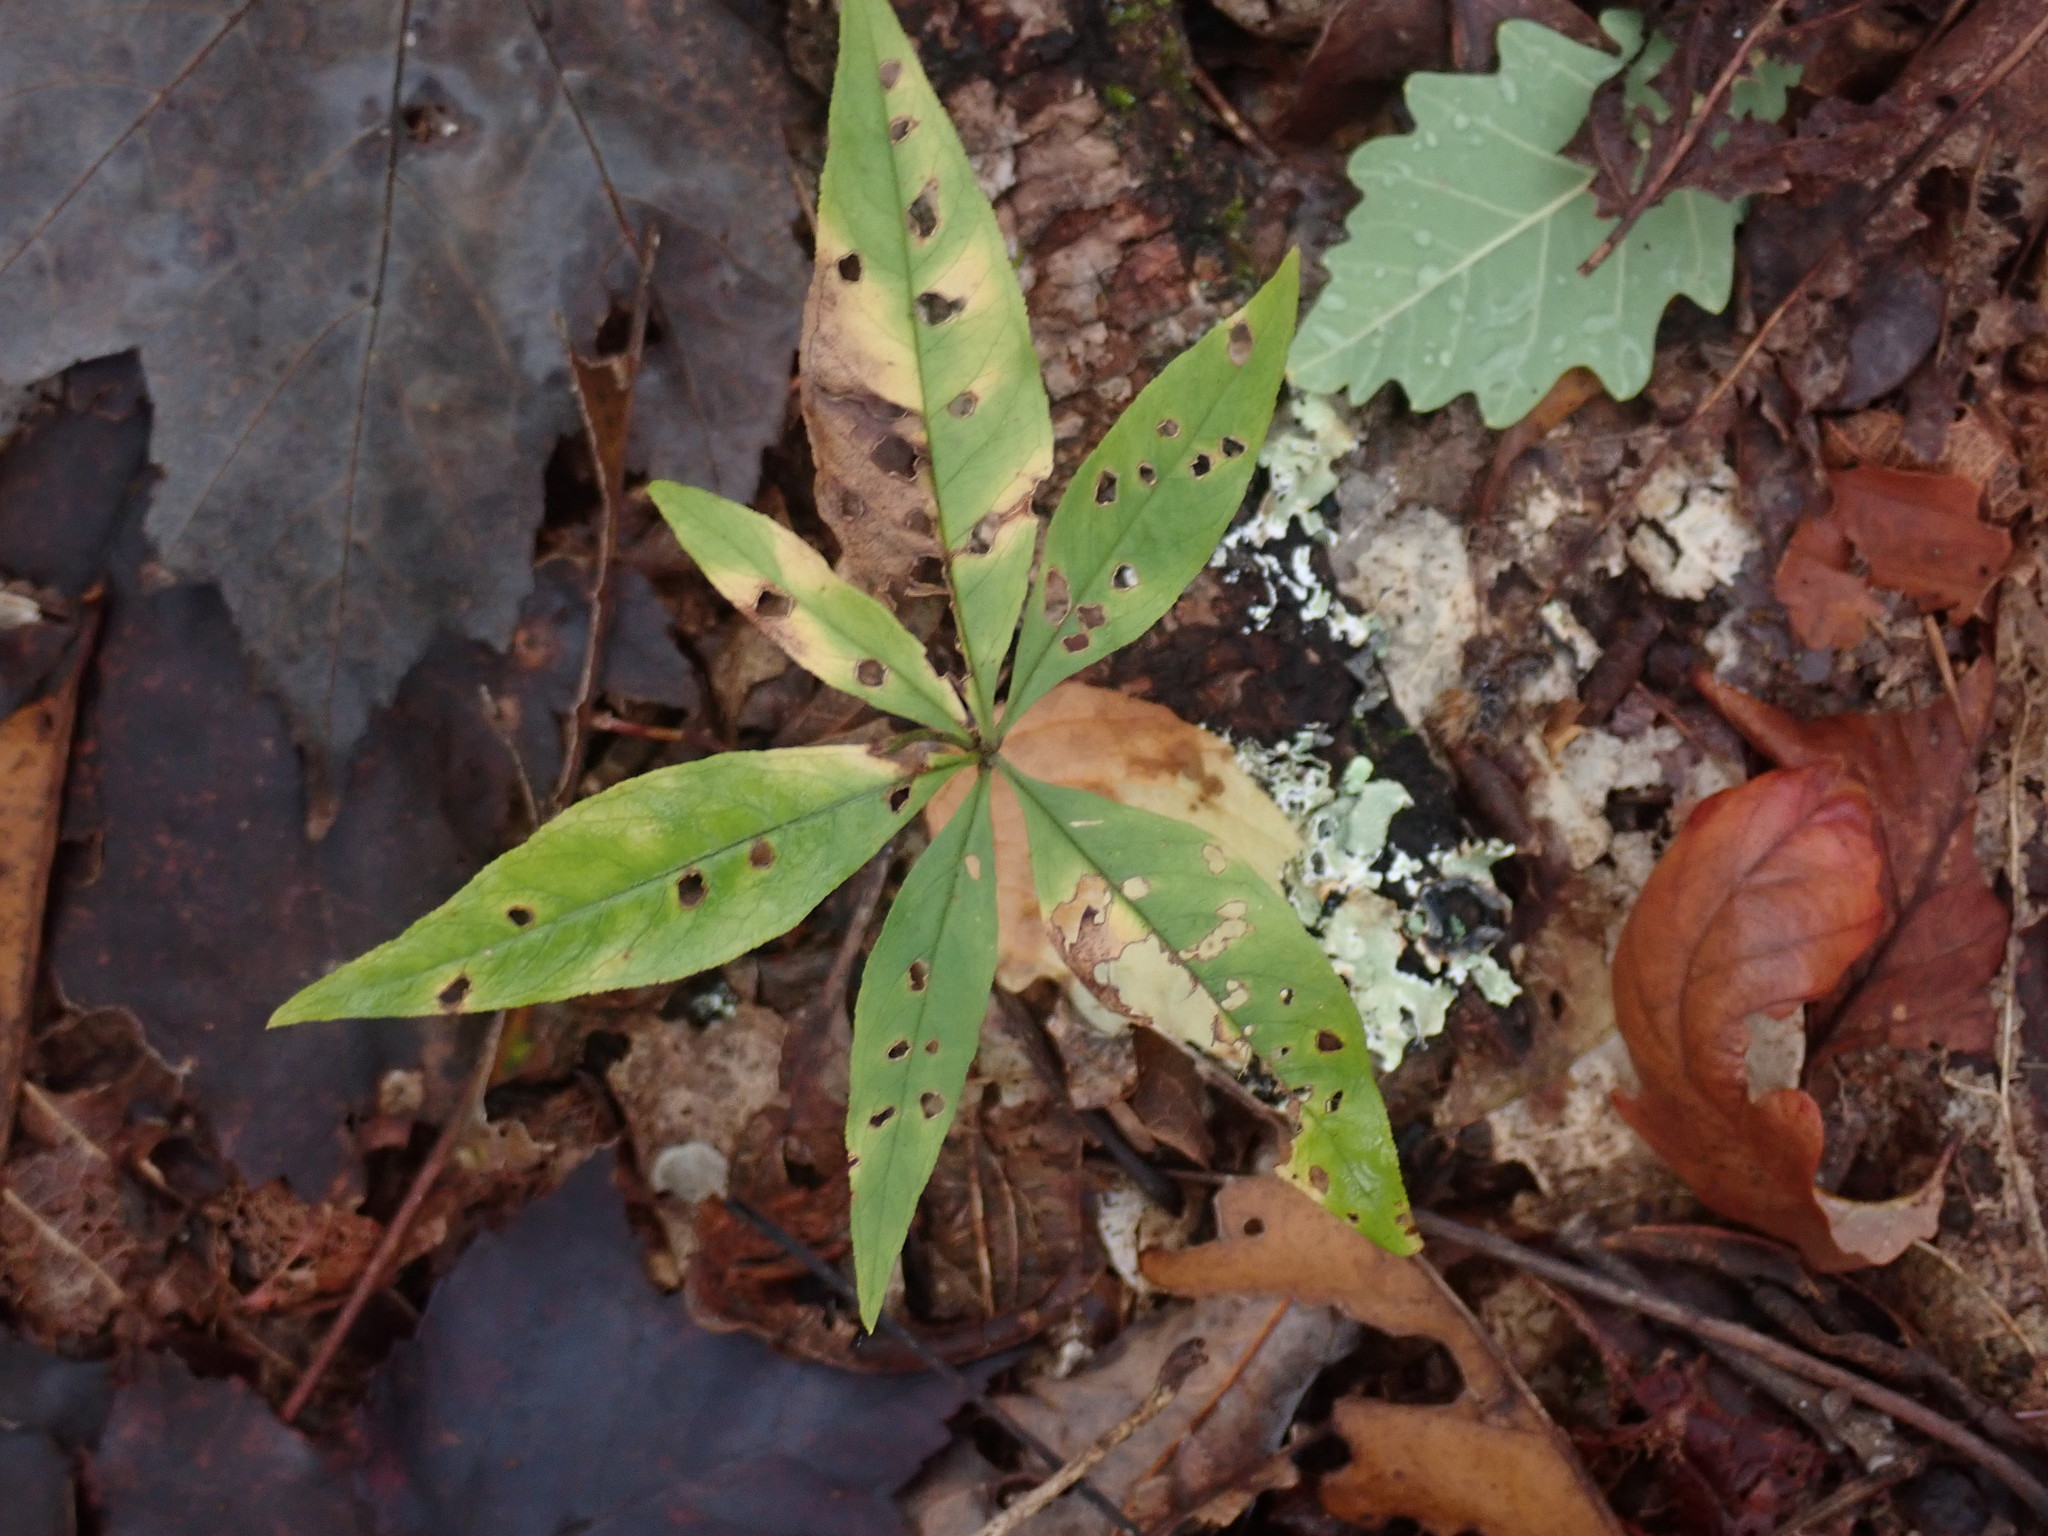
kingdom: Plantae
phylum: Tracheophyta
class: Magnoliopsida
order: Ericales
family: Primulaceae
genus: Lysimachia
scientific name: Lysimachia borealis
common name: American starflower
